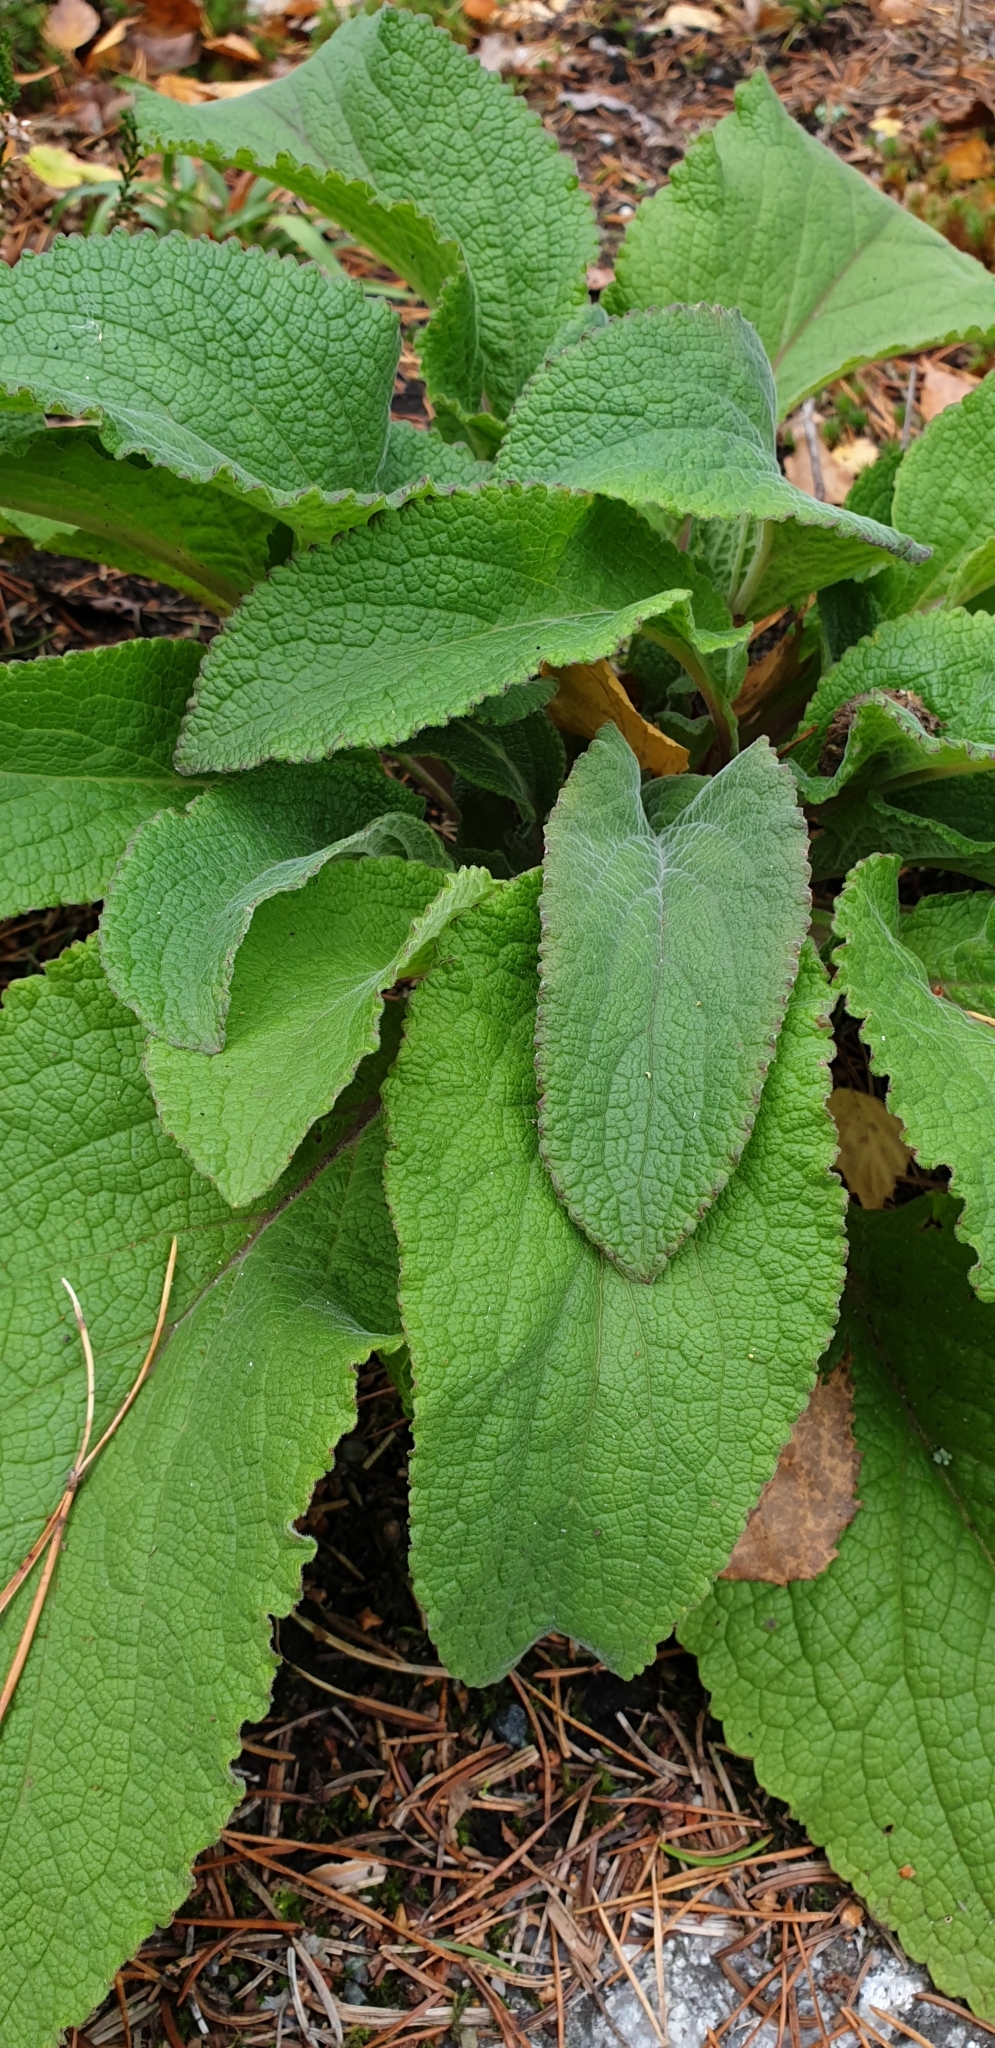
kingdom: Plantae
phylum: Tracheophyta
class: Magnoliopsida
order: Lamiales
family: Plantaginaceae
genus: Digitalis
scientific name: Digitalis purpurea
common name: Foxglove
